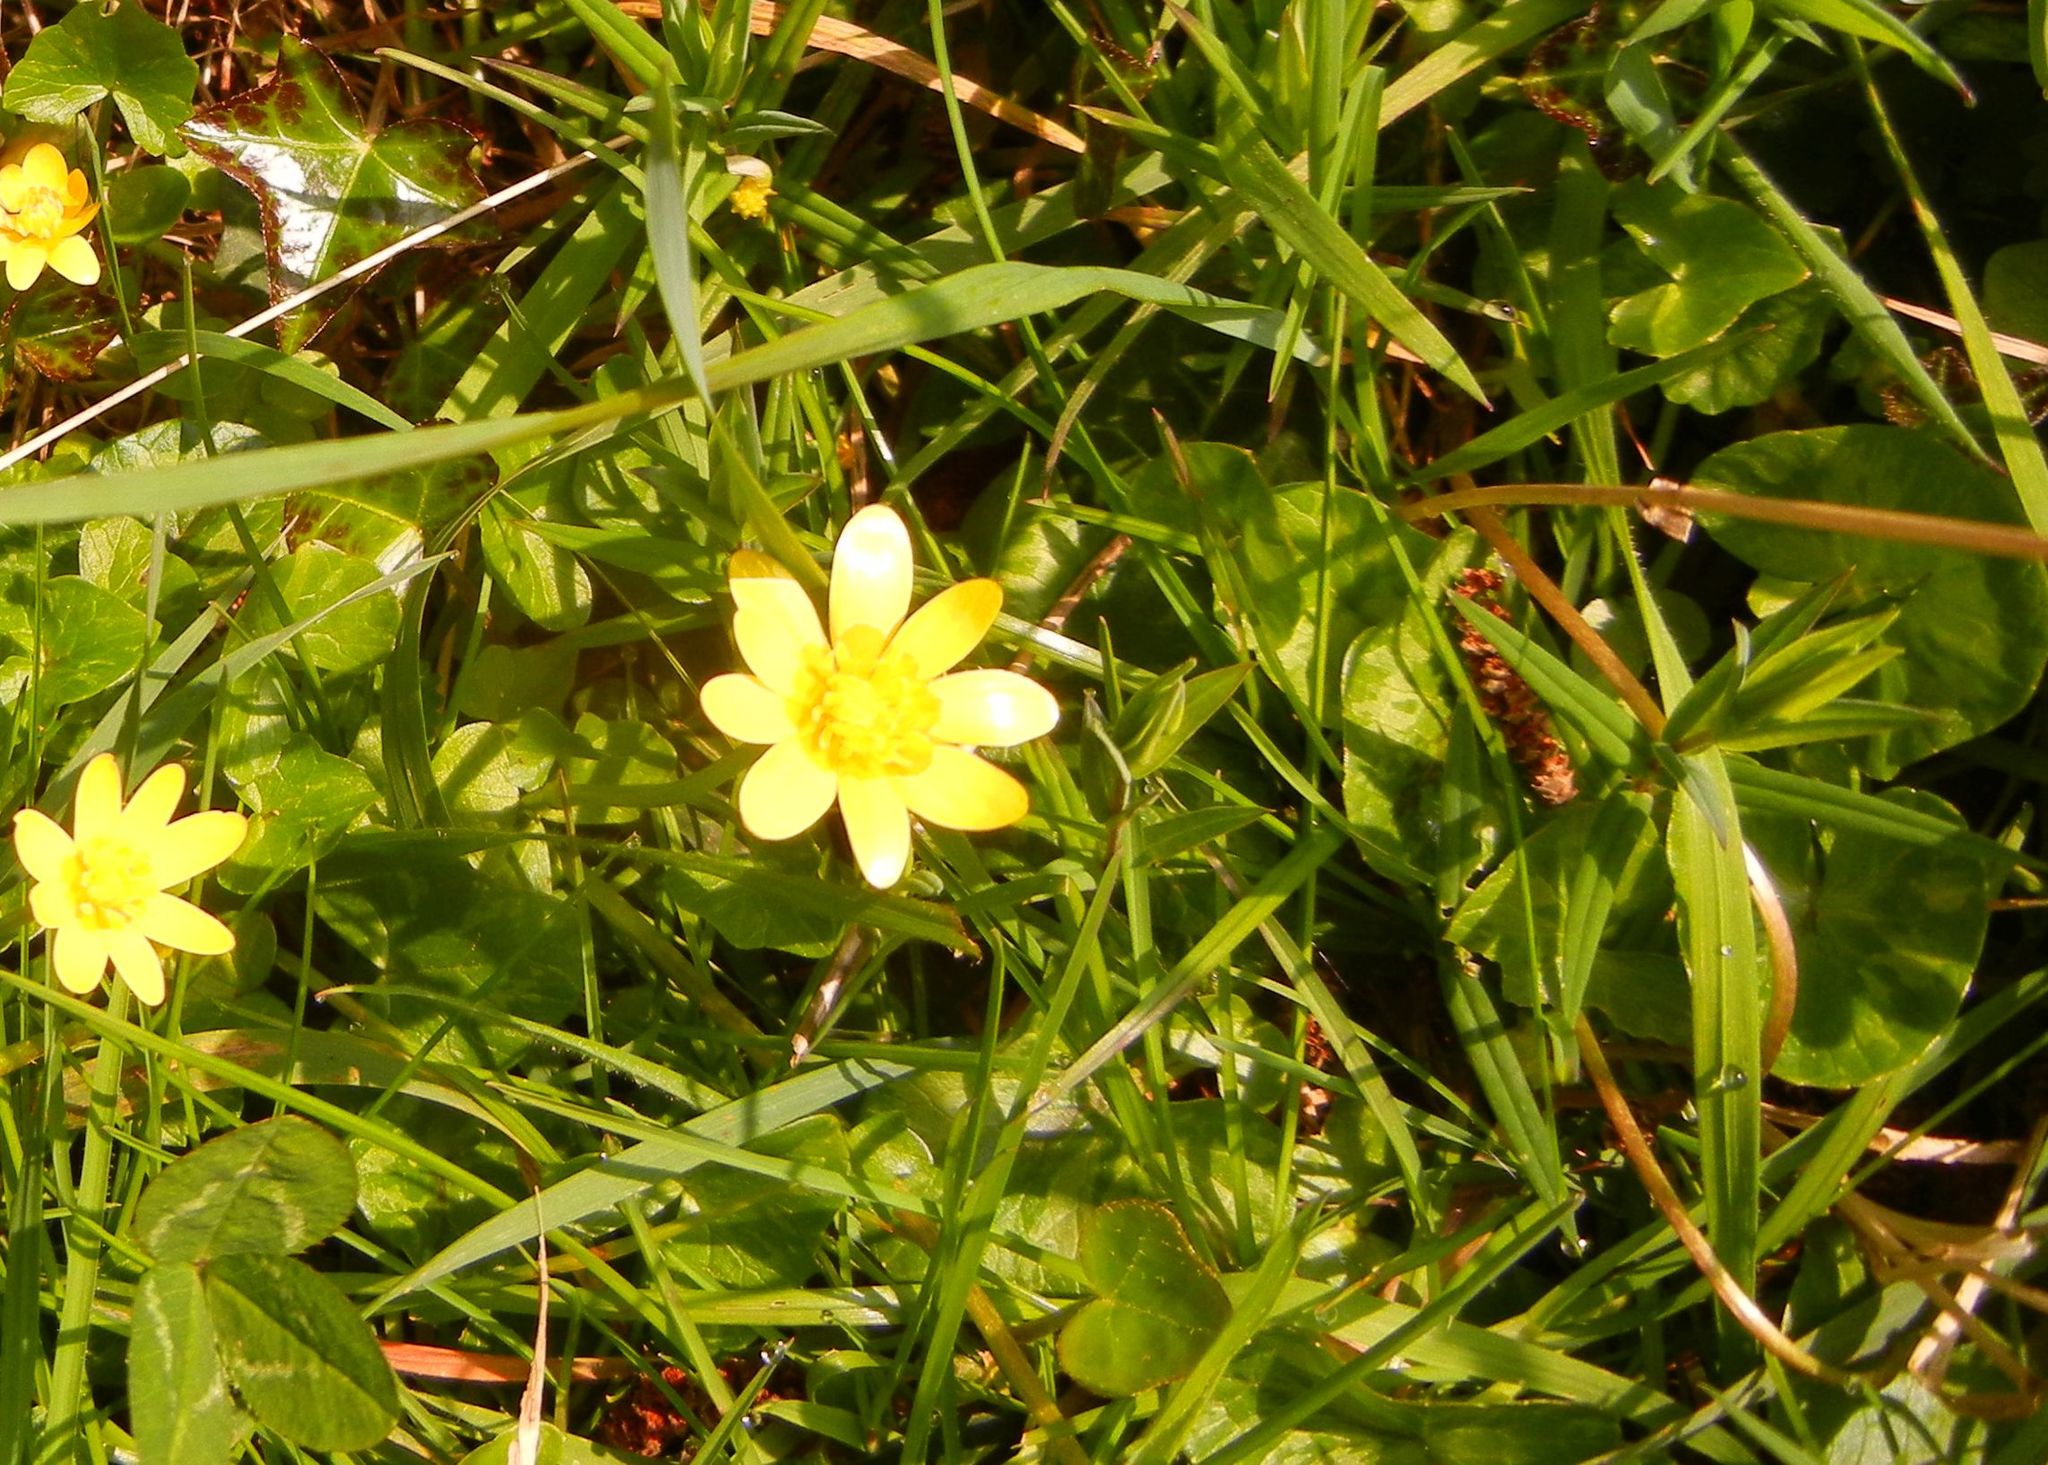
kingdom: Plantae
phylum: Tracheophyta
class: Magnoliopsida
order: Ranunculales
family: Ranunculaceae
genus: Ficaria
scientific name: Ficaria verna
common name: Lesser celandine
